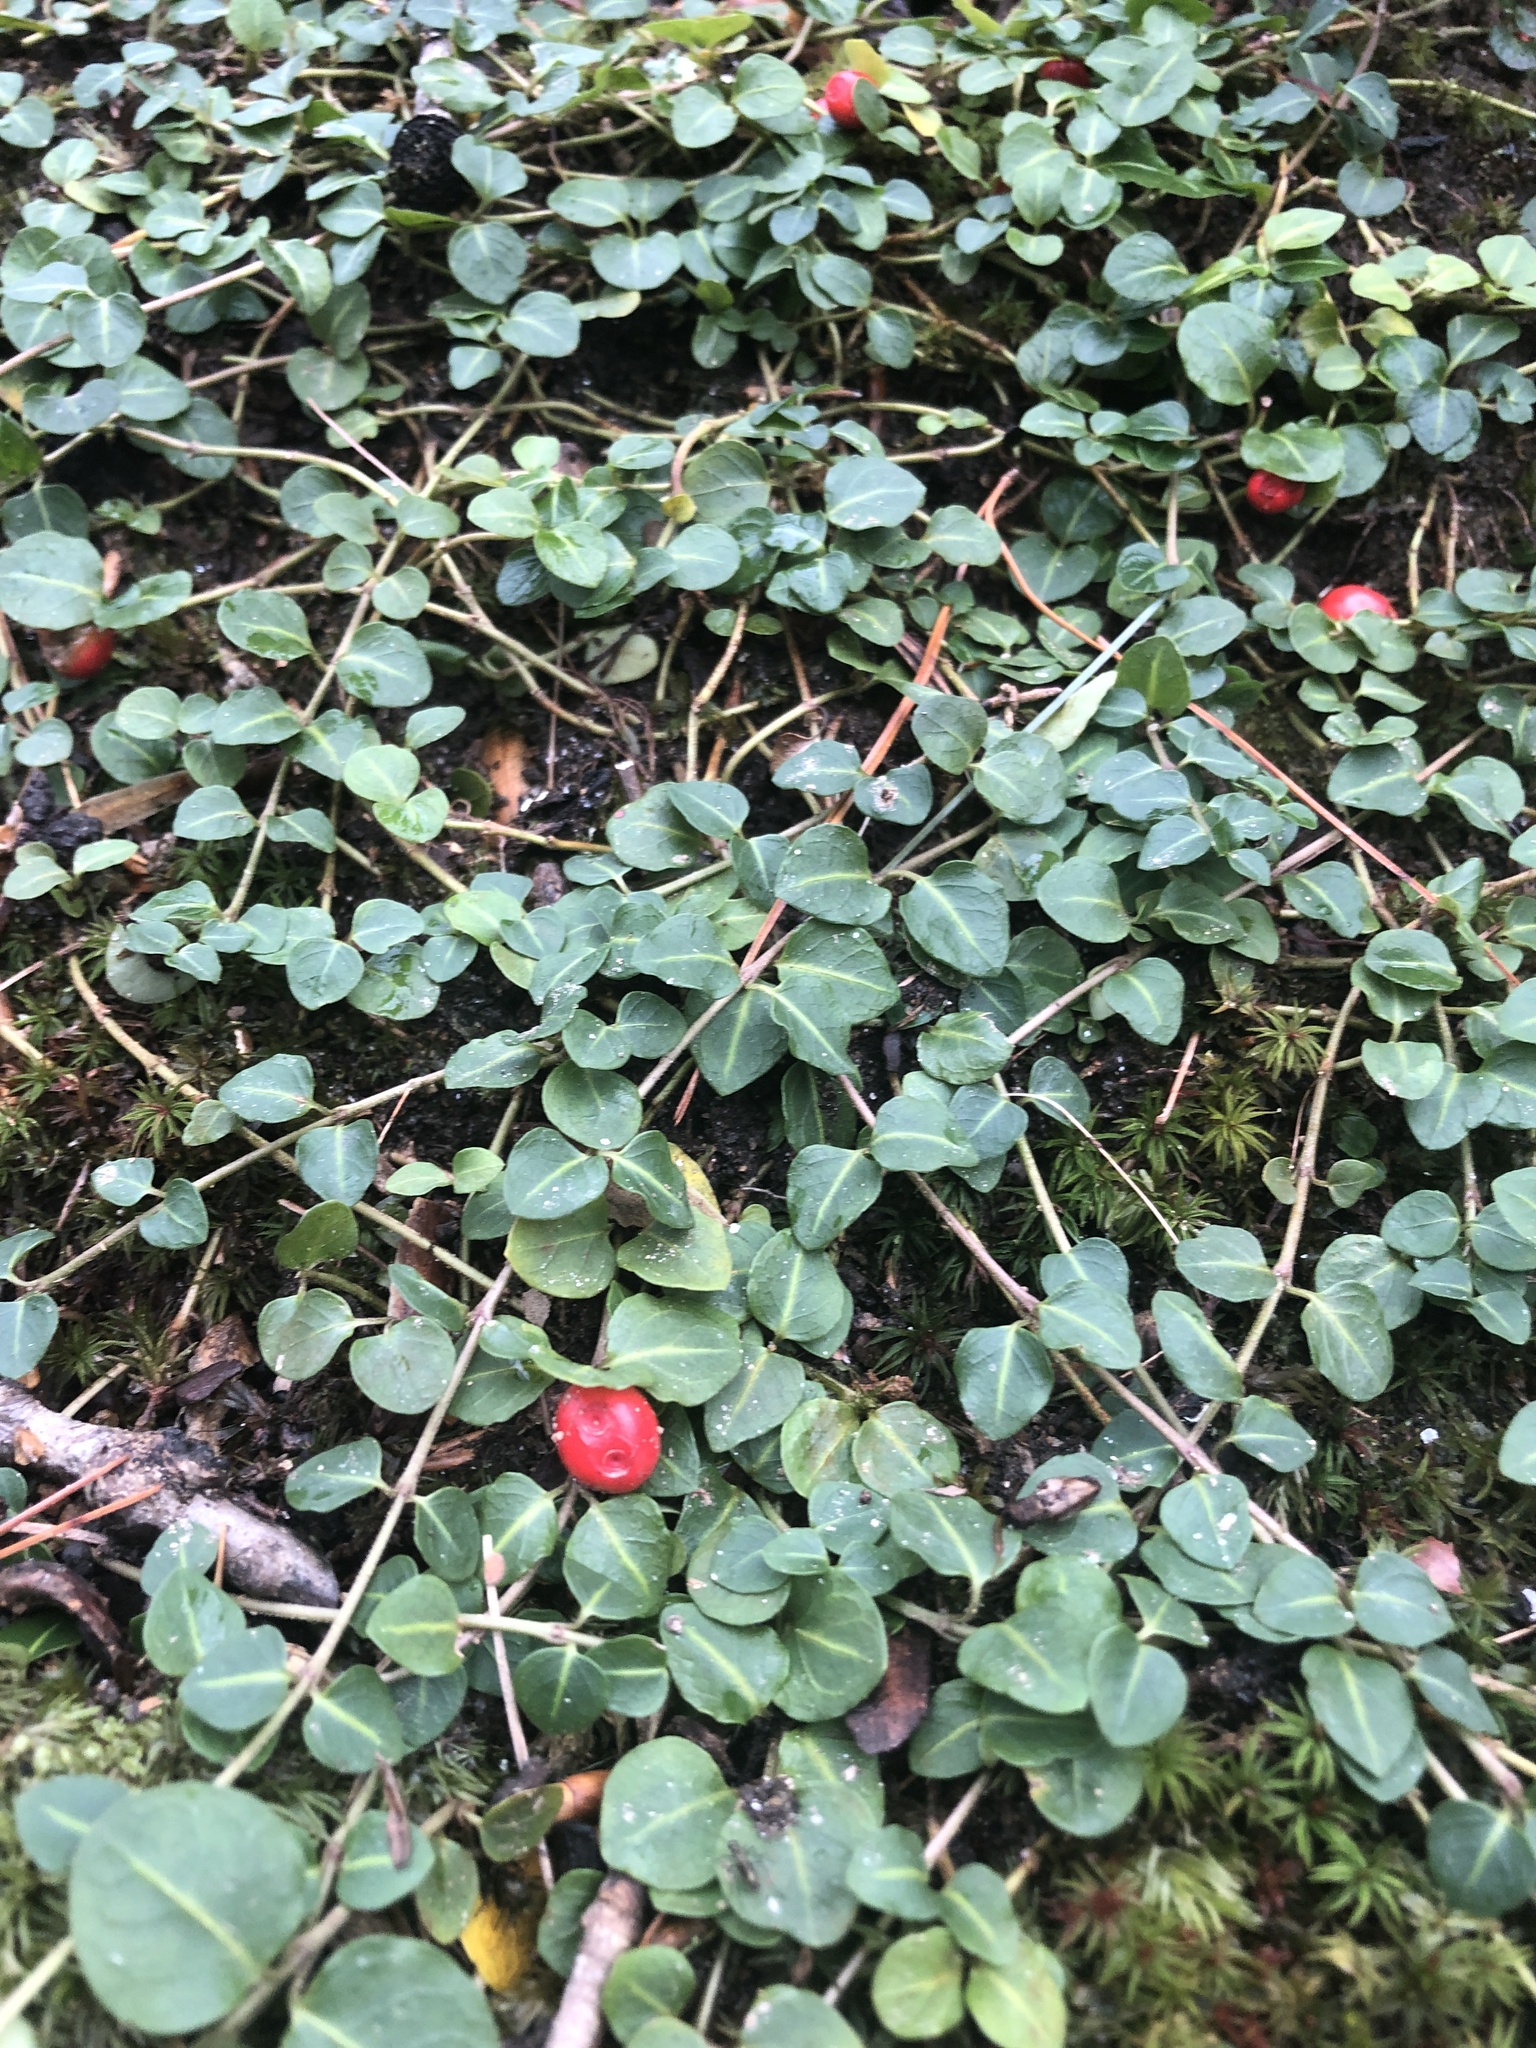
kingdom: Plantae
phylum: Tracheophyta
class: Magnoliopsida
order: Gentianales
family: Rubiaceae
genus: Mitchella
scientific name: Mitchella repens
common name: Partridge-berry
